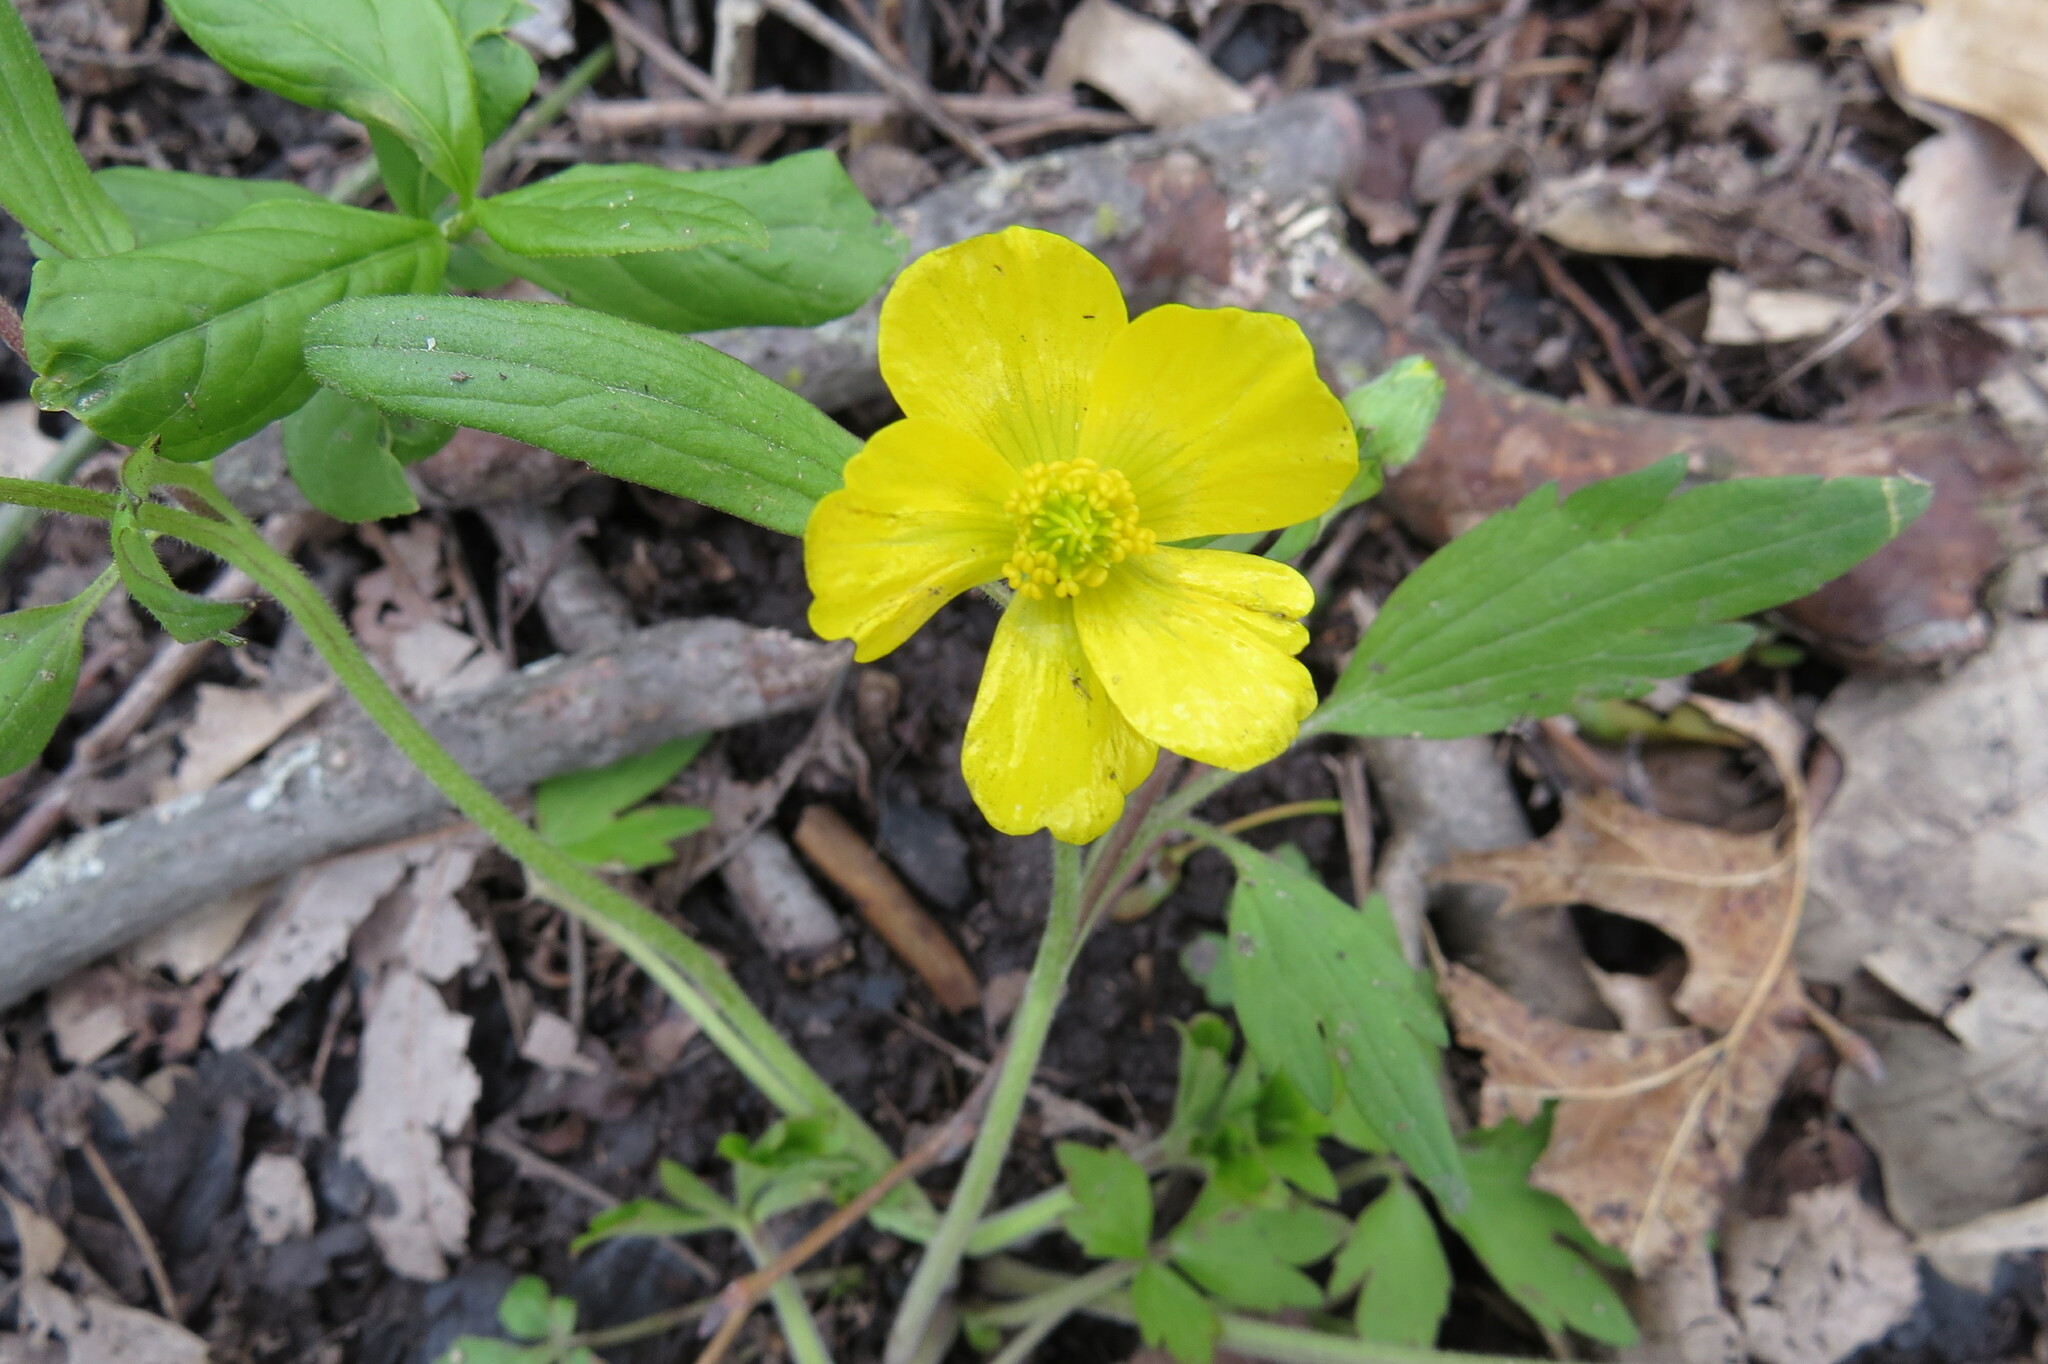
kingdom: Plantae
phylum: Tracheophyta
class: Magnoliopsida
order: Ranunculales
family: Ranunculaceae
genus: Ranunculus
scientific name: Ranunculus hispidus
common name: Bristly buttercup
